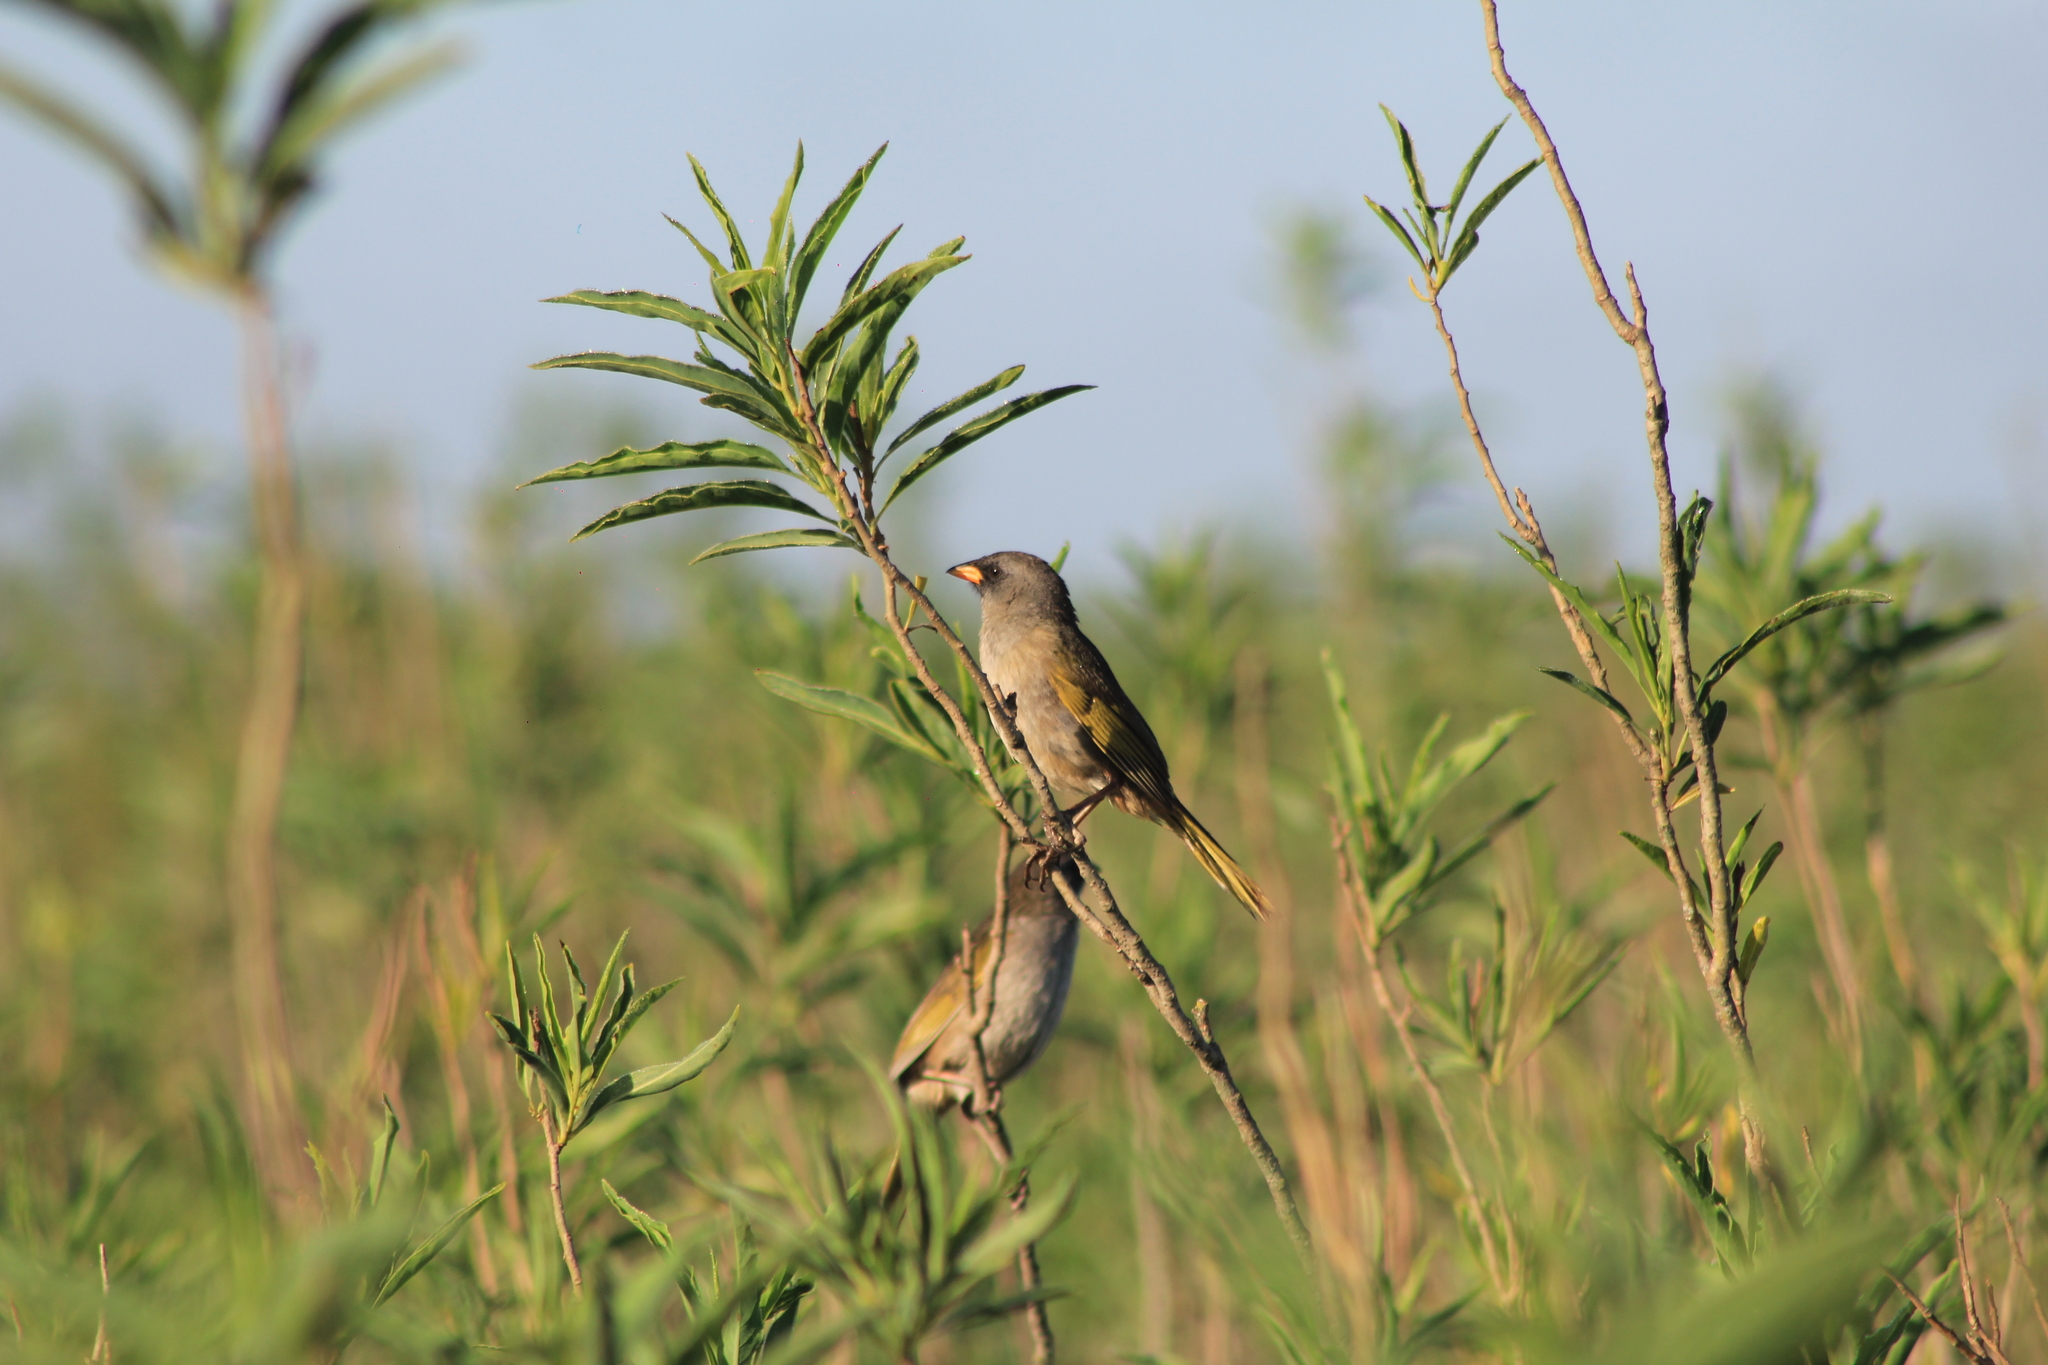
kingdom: Animalia
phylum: Chordata
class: Aves
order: Passeriformes
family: Thraupidae
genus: Embernagra
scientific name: Embernagra platensis
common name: Pampa finch
